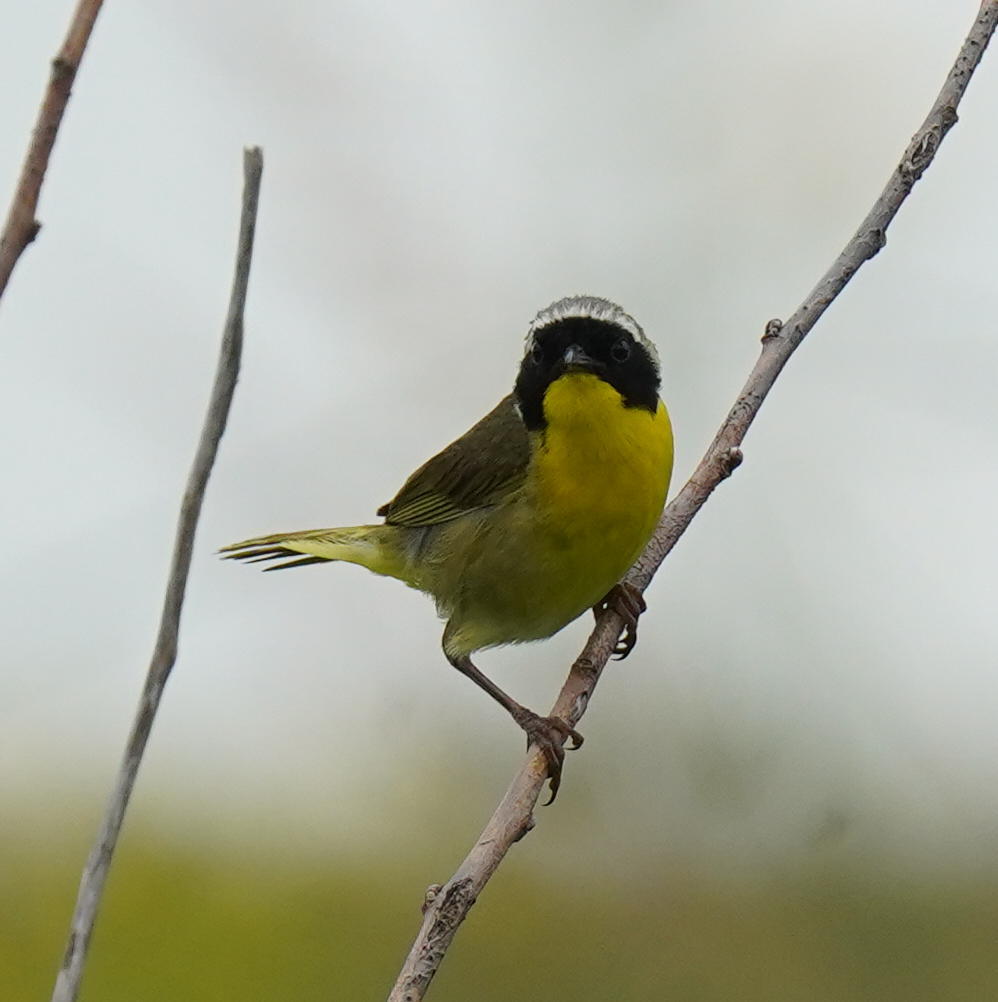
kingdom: Animalia
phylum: Chordata
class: Aves
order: Passeriformes
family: Parulidae
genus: Geothlypis
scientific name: Geothlypis trichas
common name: Common yellowthroat
